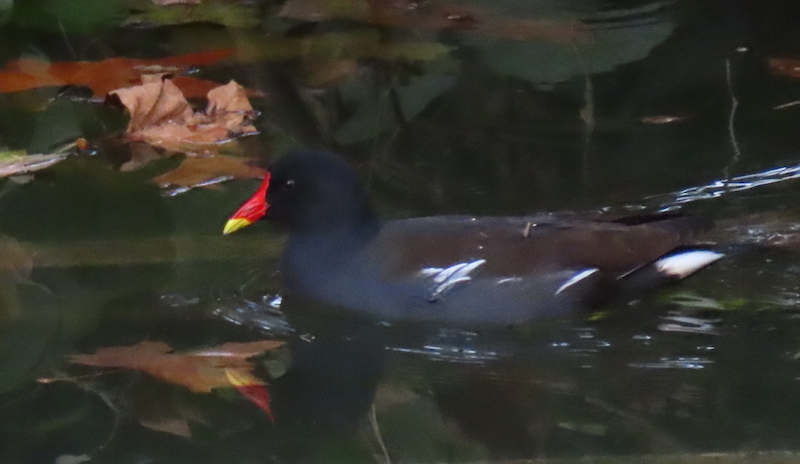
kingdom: Animalia
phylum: Chordata
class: Aves
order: Gruiformes
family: Rallidae
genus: Gallinula
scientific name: Gallinula chloropus
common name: Common moorhen
